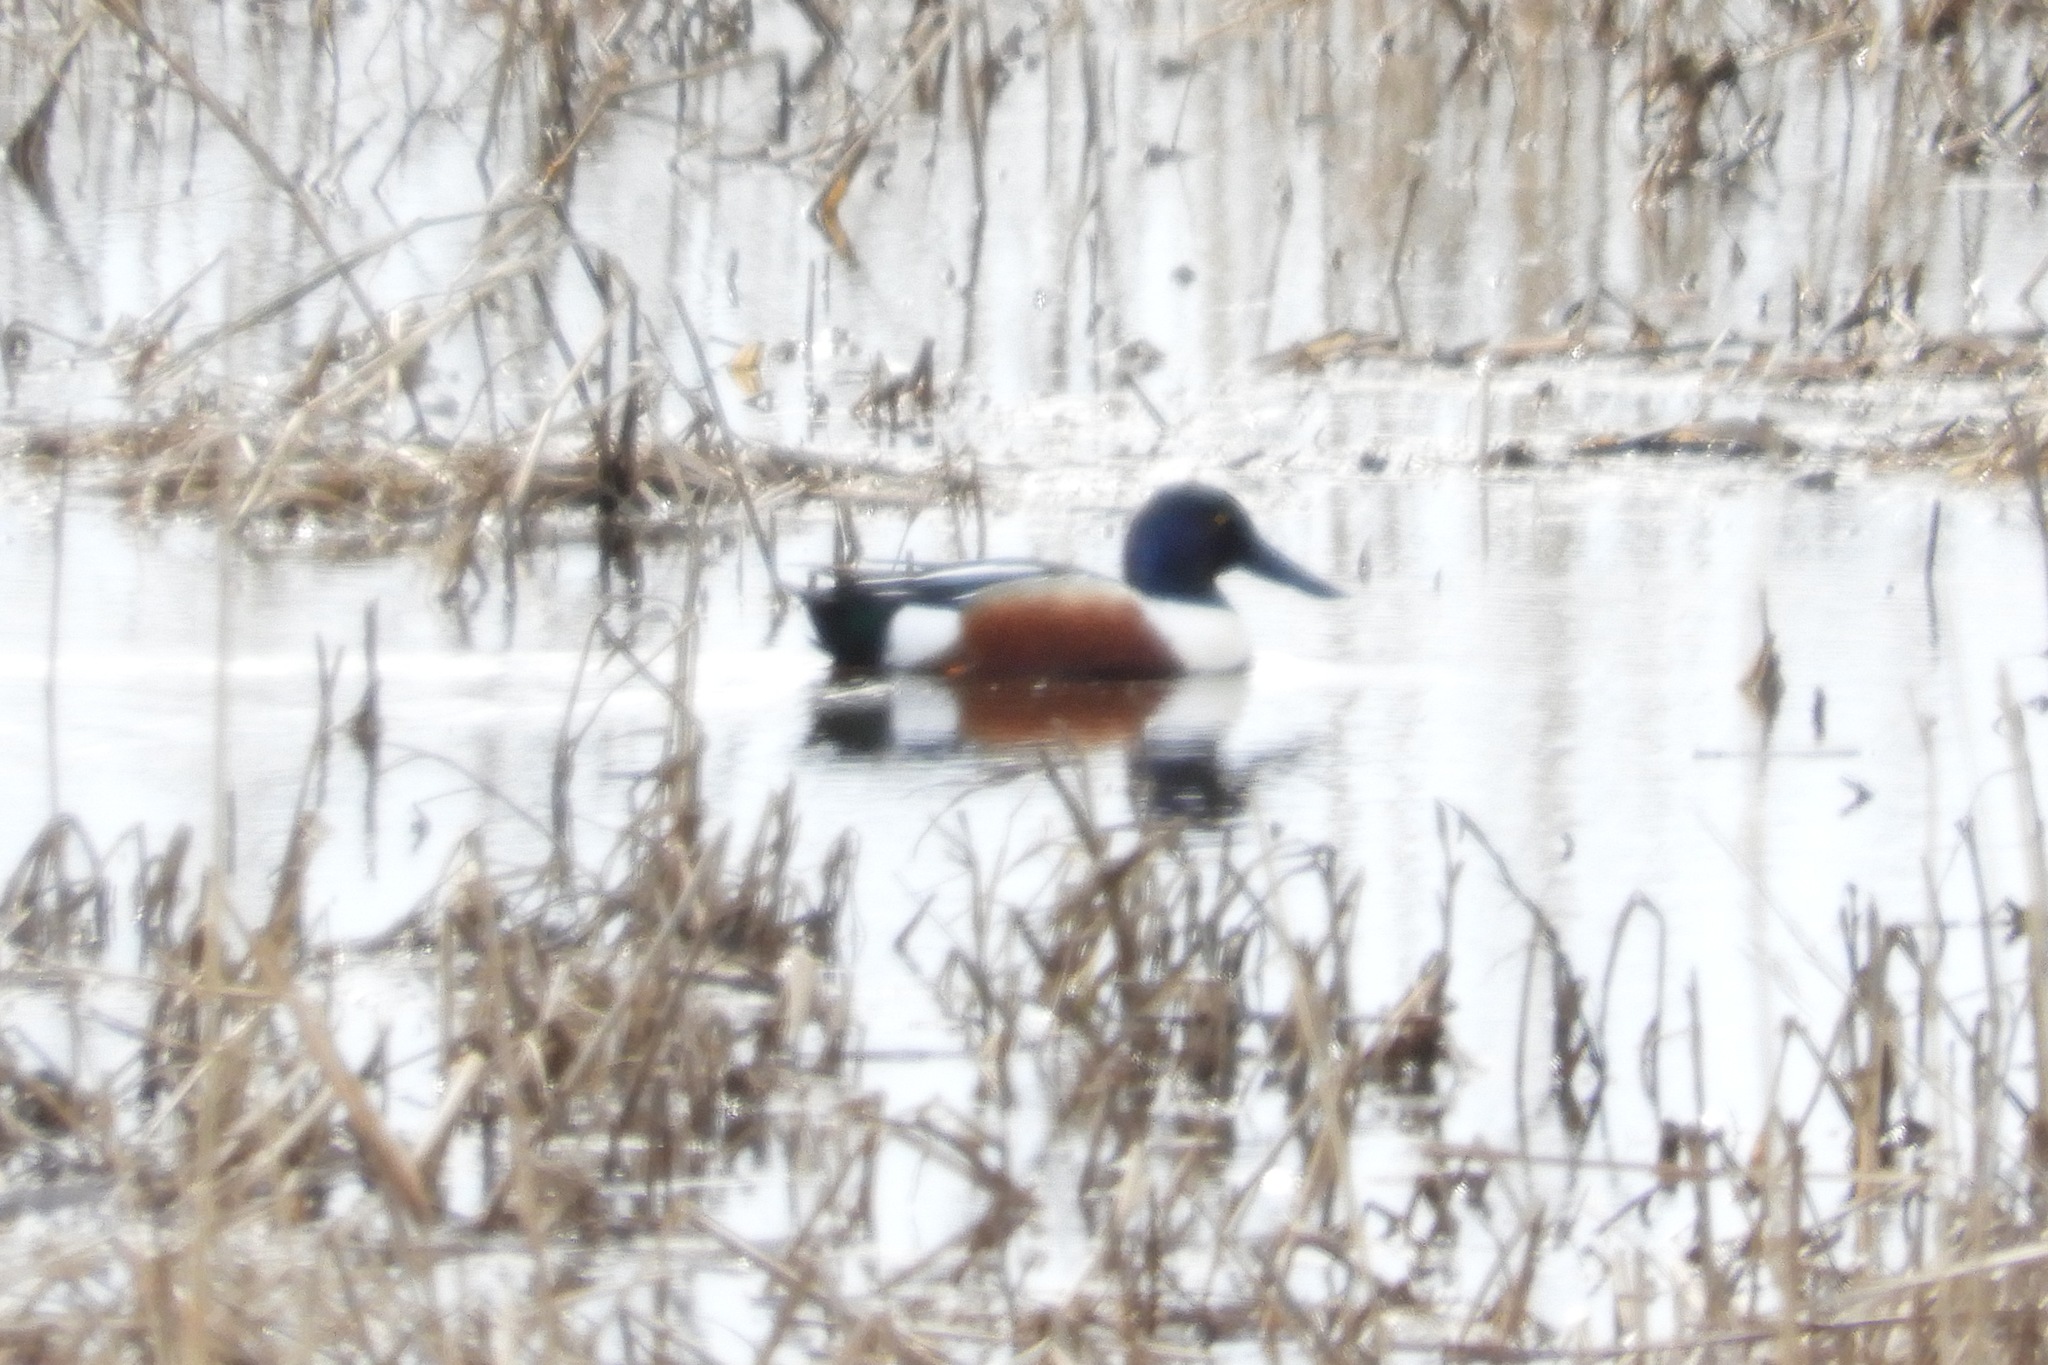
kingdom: Animalia
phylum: Chordata
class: Aves
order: Anseriformes
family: Anatidae
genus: Spatula
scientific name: Spatula clypeata
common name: Northern shoveler
